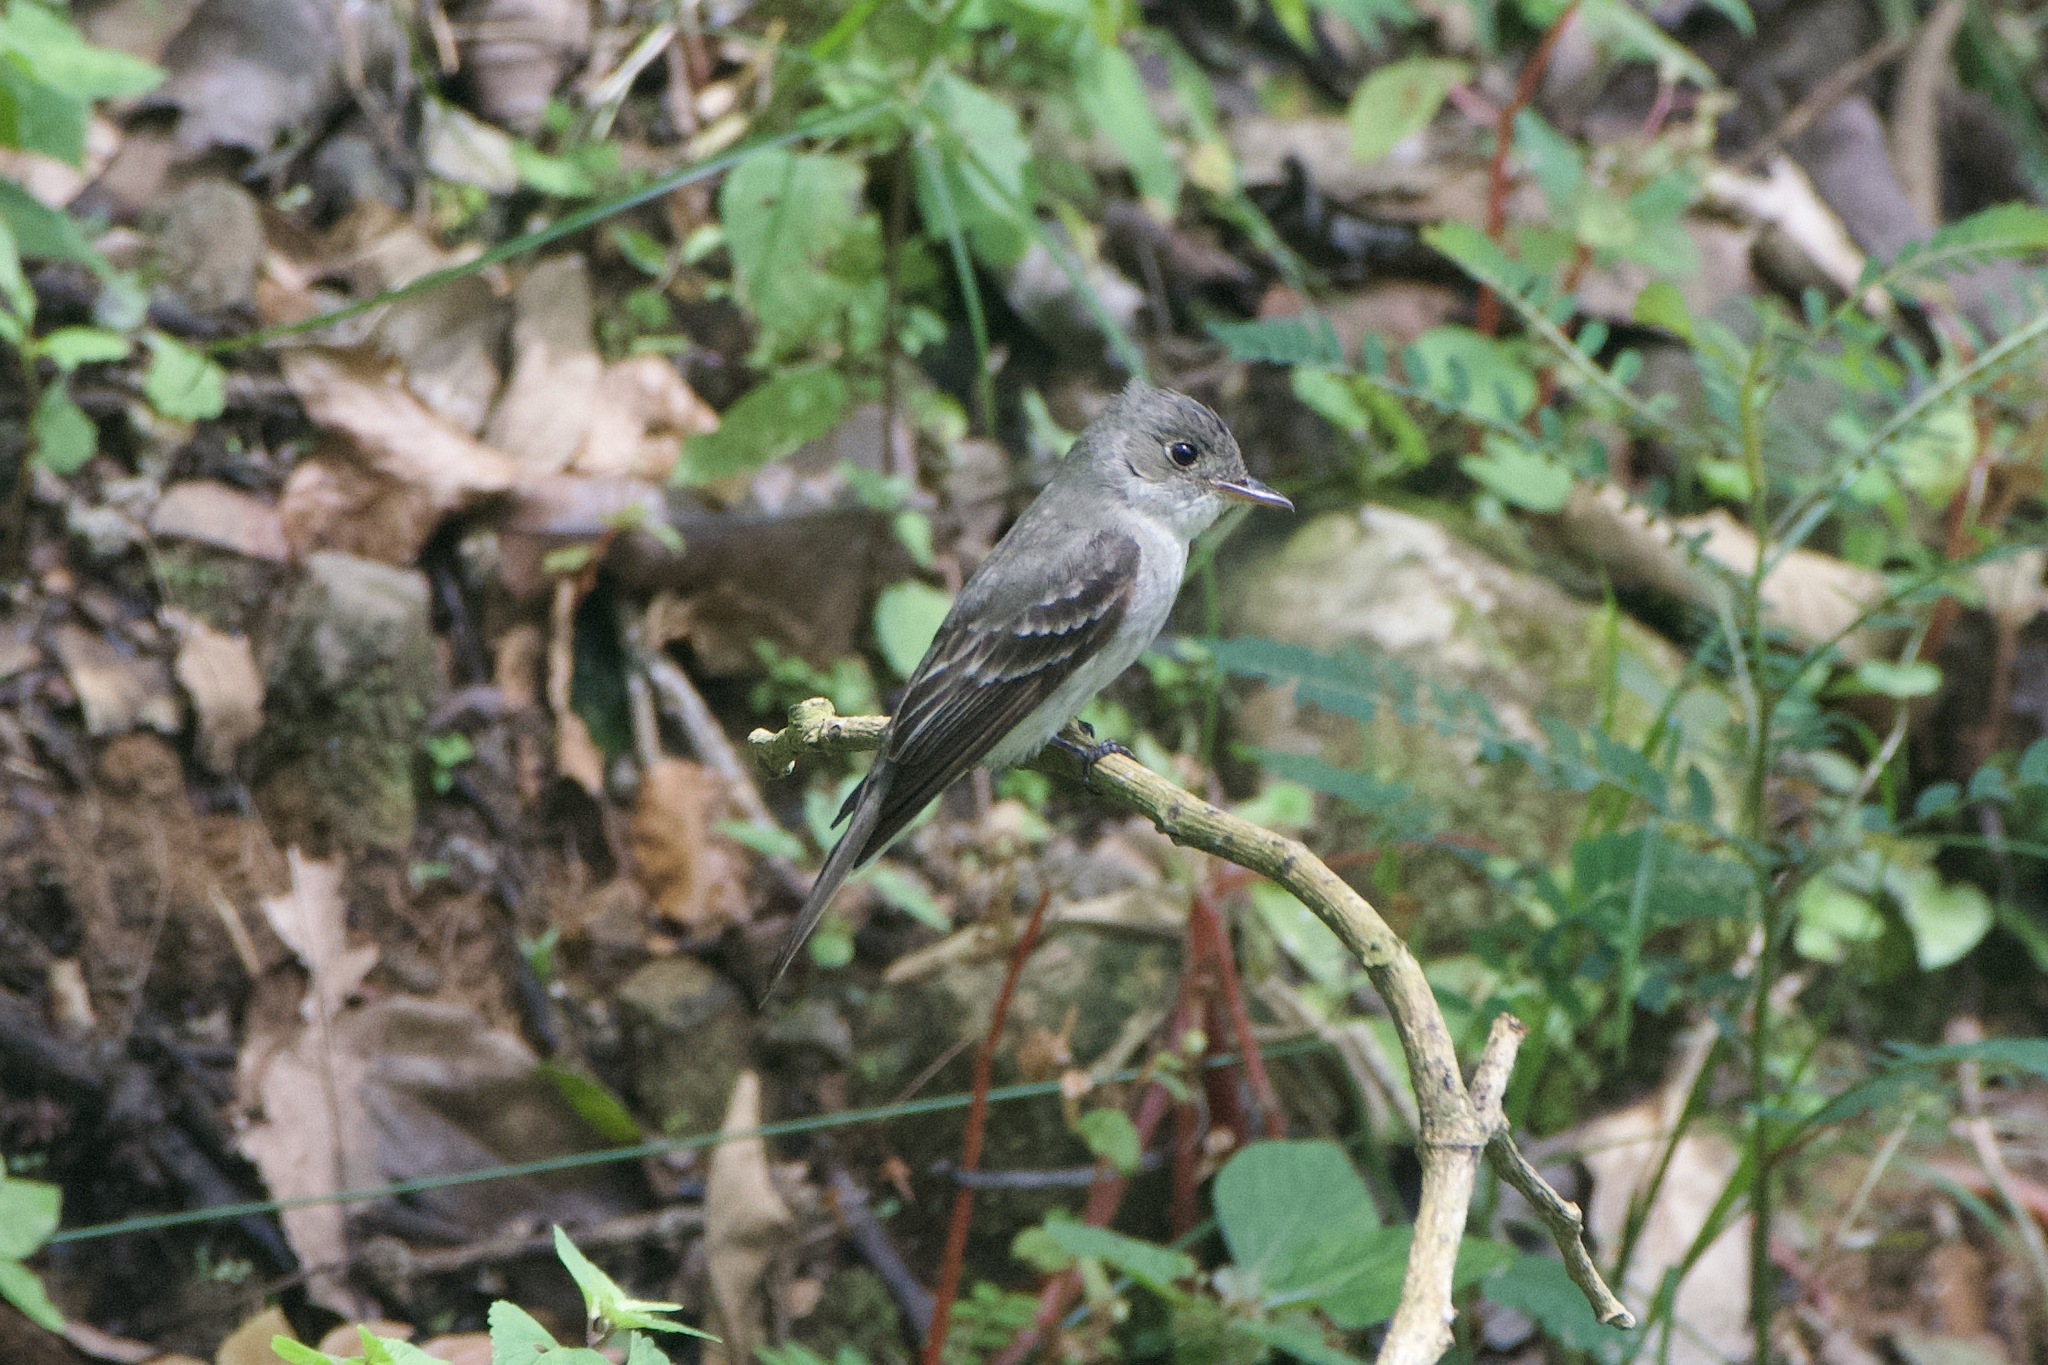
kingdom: Animalia
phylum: Chordata
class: Aves
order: Passeriformes
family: Tyrannidae
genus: Contopus
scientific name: Contopus virens
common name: Eastern wood-pewee
